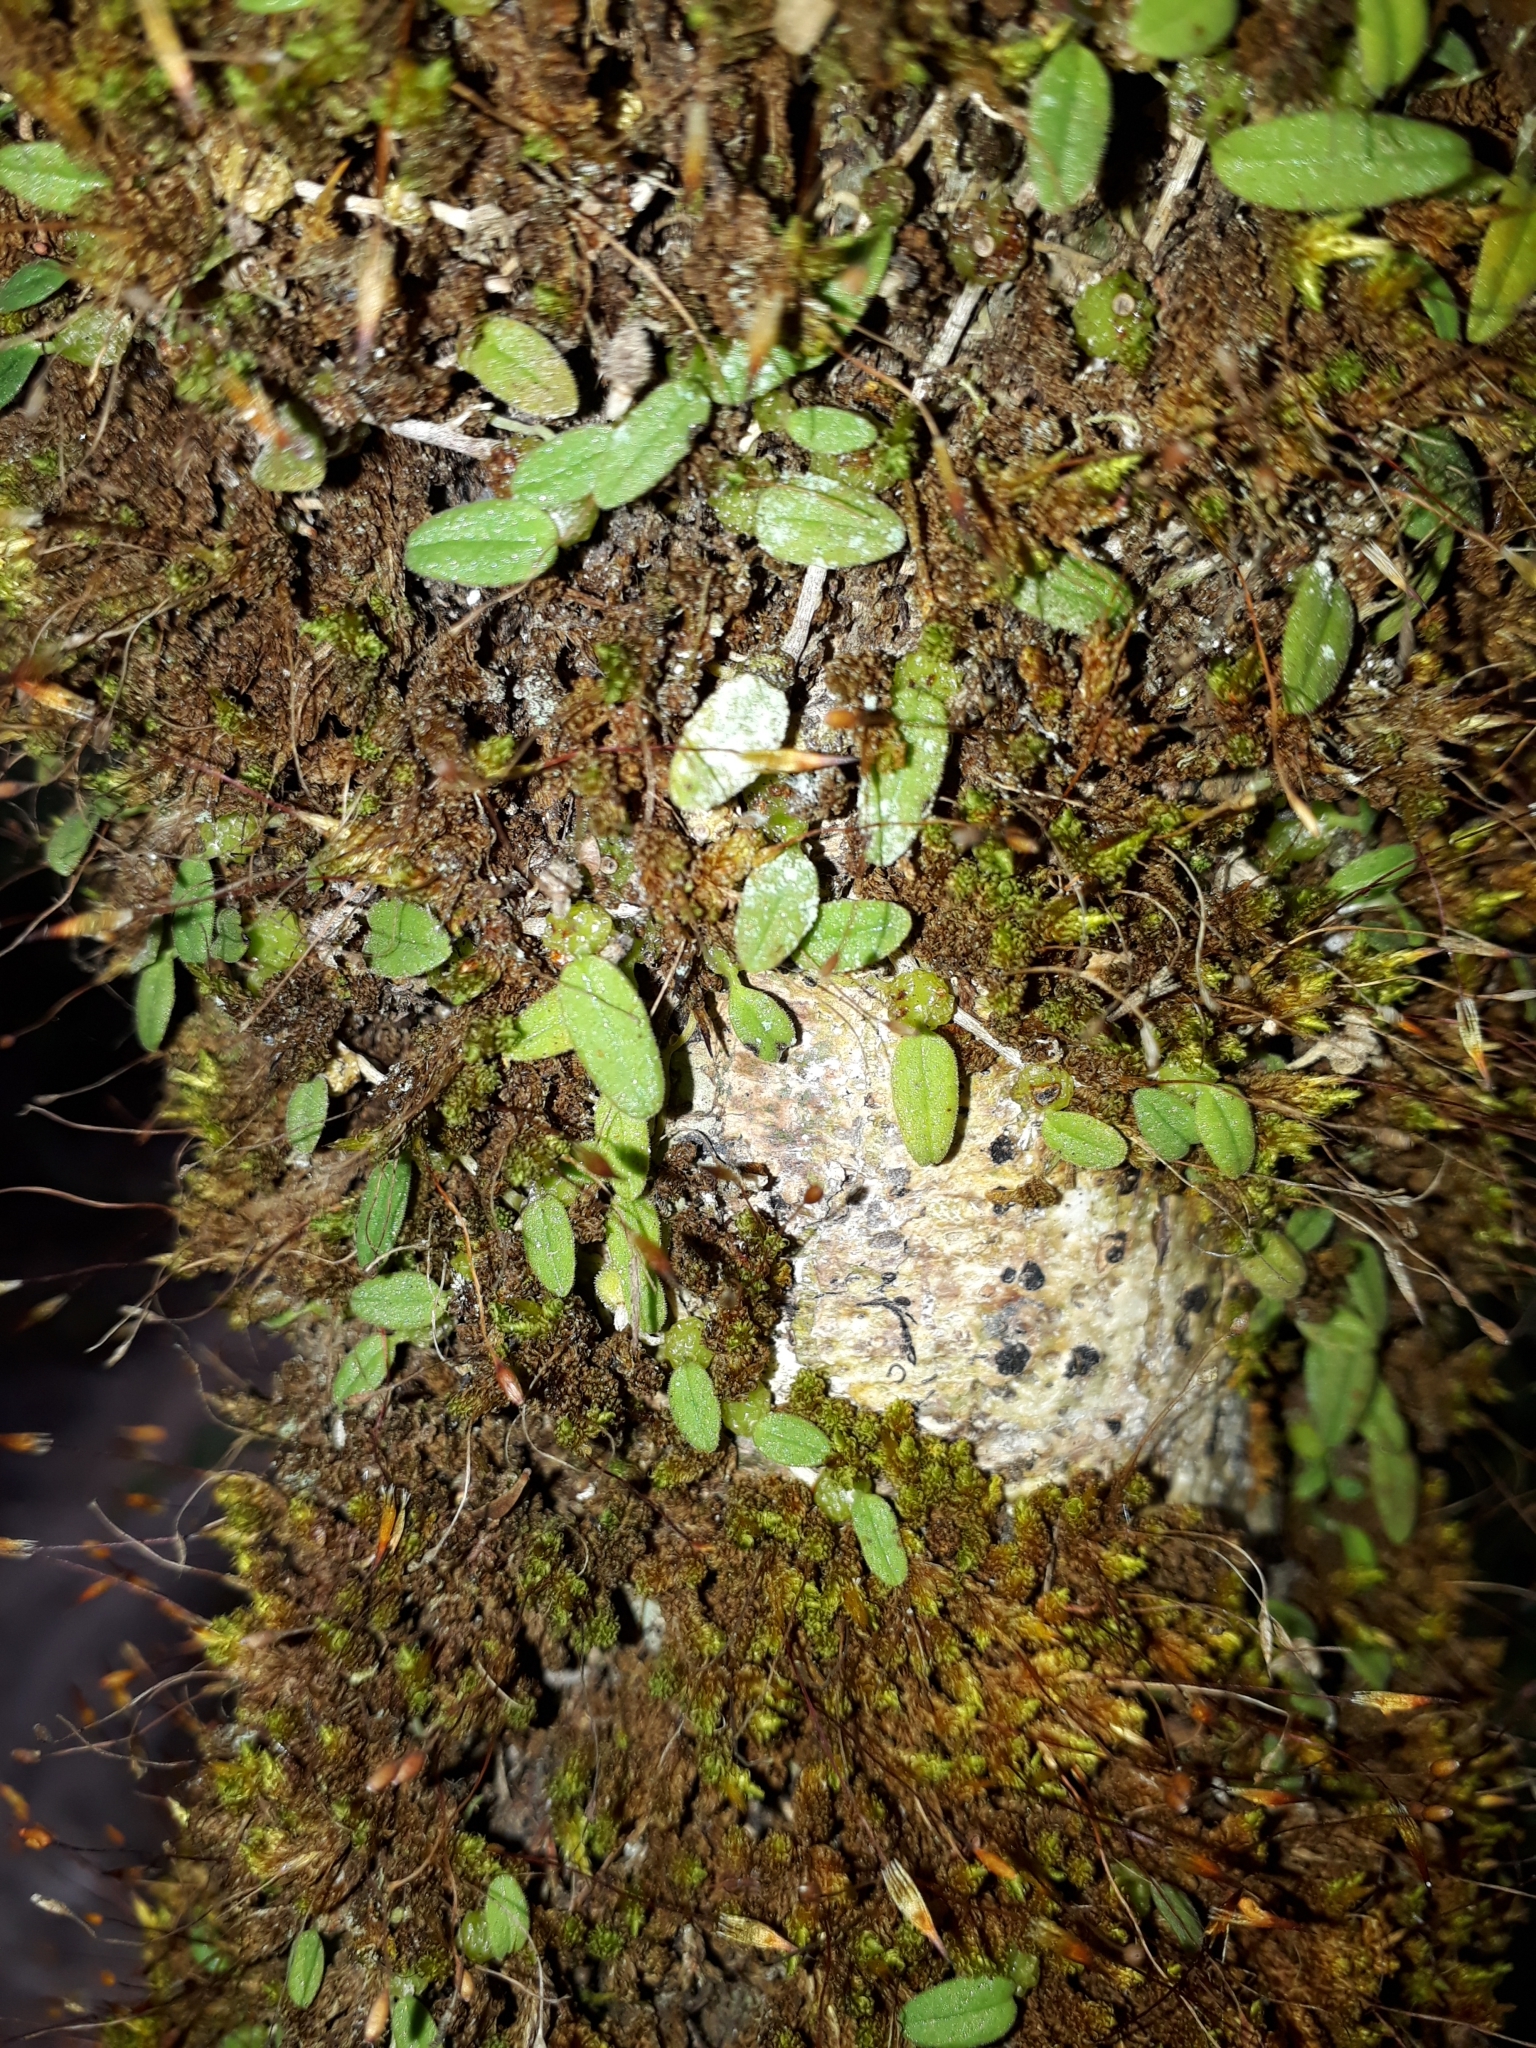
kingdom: Plantae
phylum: Tracheophyta
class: Liliopsida
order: Asparagales
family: Orchidaceae
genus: Bulbophyllum
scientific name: Bulbophyllum pygmaeum
